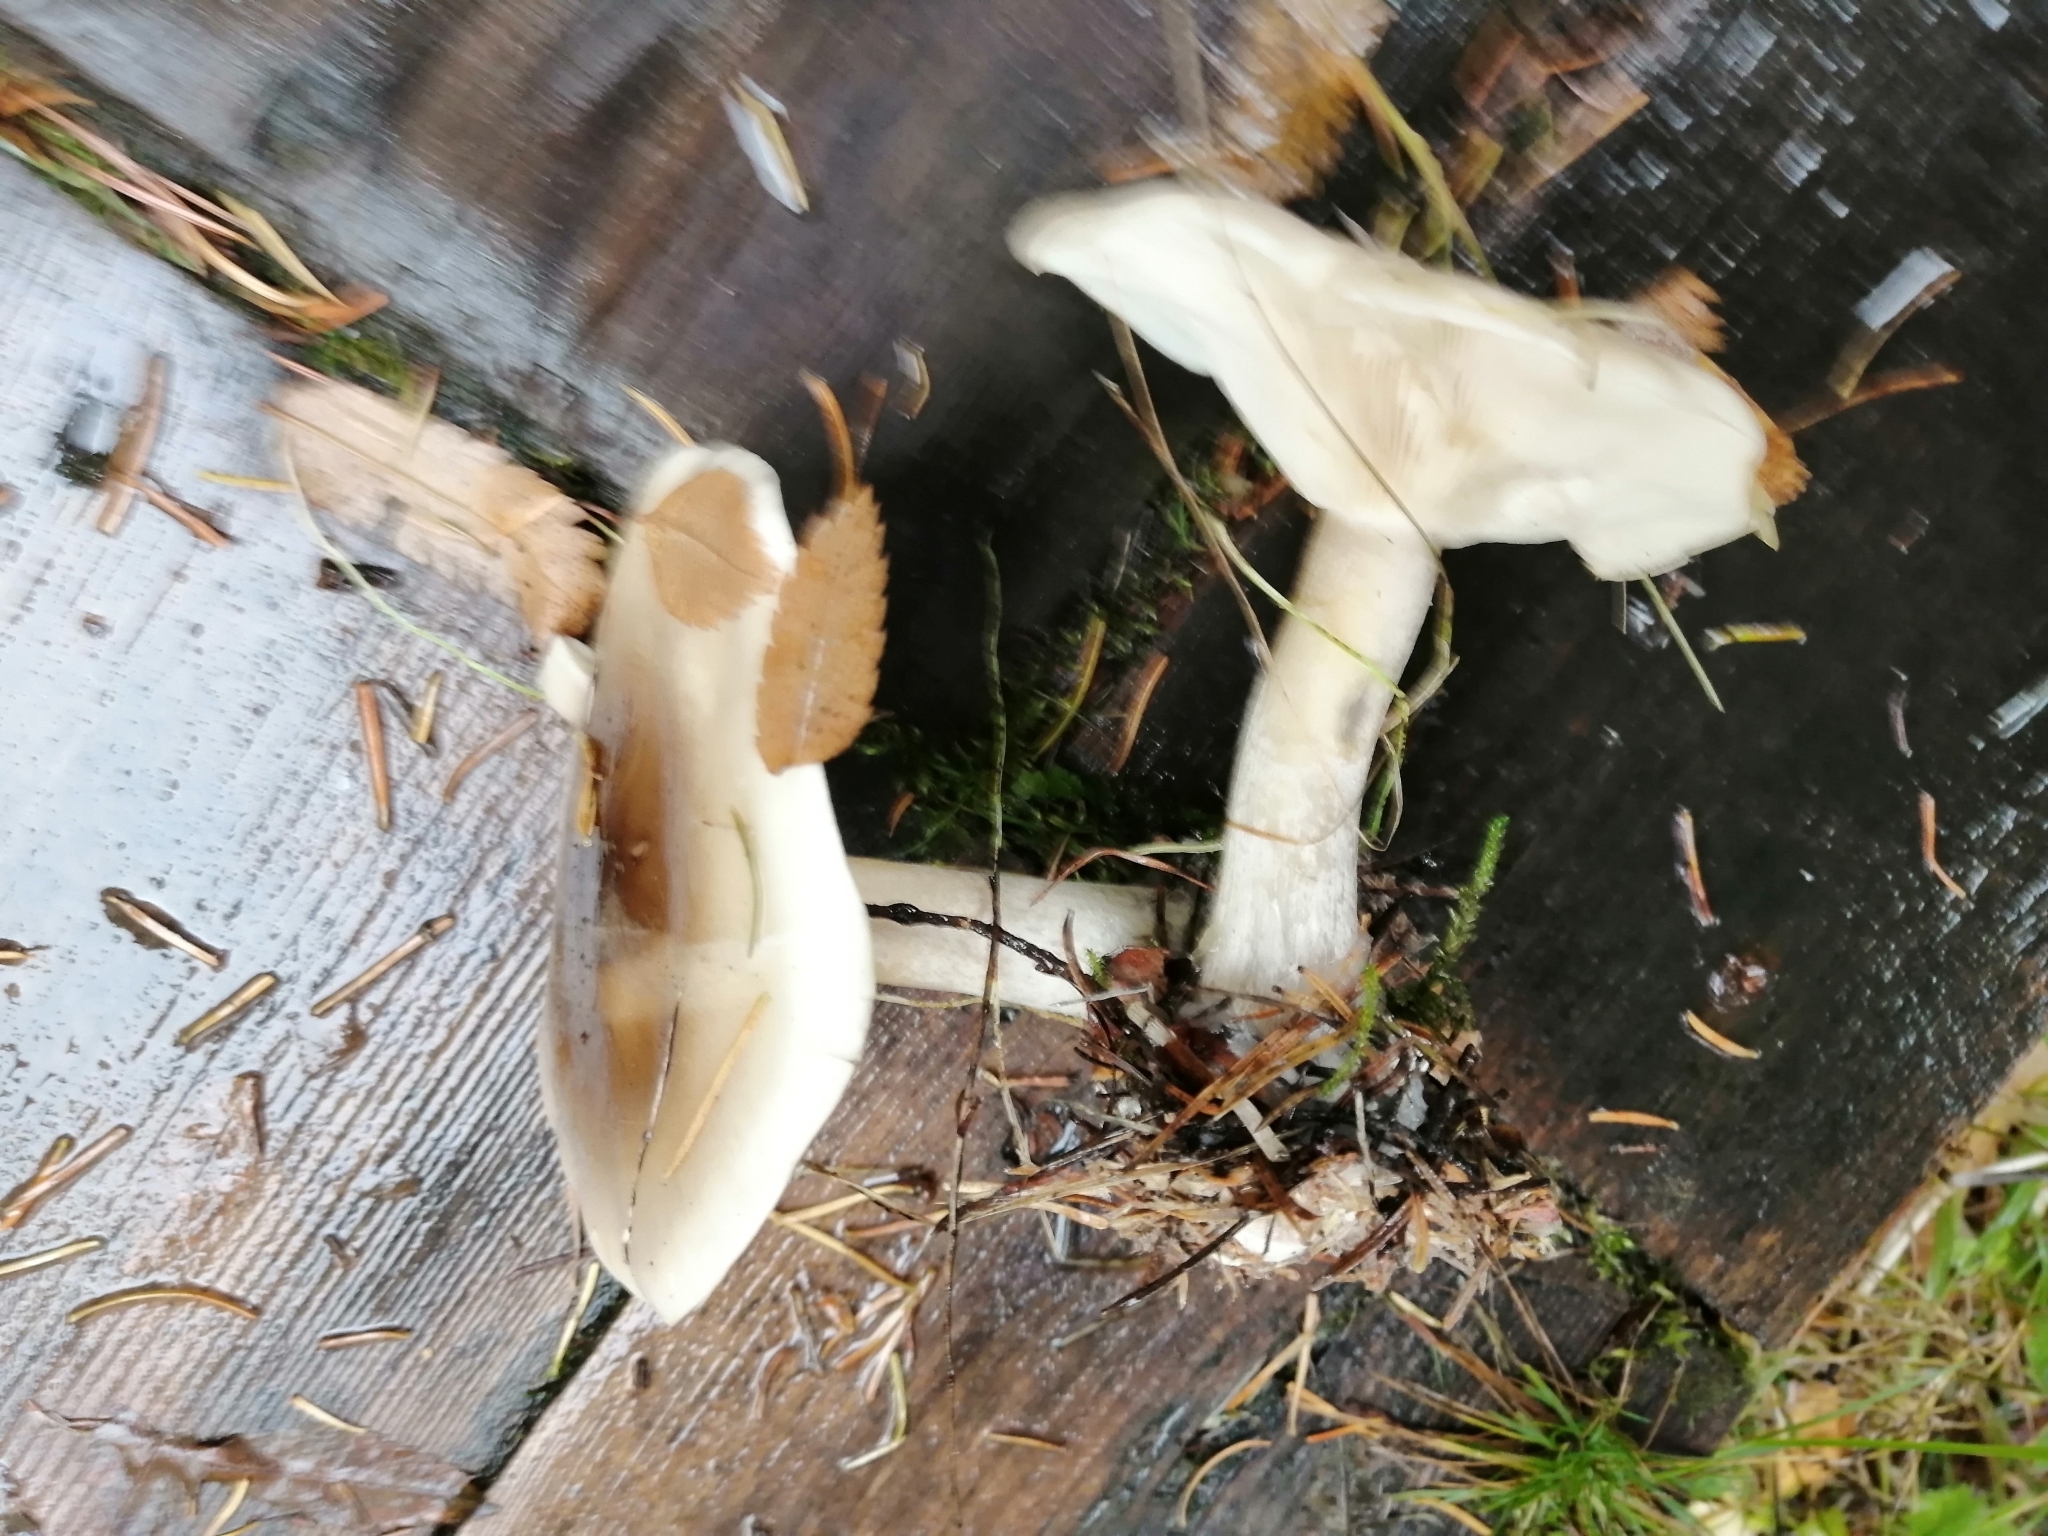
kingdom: Fungi
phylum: Basidiomycota
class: Agaricomycetes
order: Agaricales
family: Tricholomataceae
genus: Clitocybe
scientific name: Clitocybe nebularis
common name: Clouded agaric
